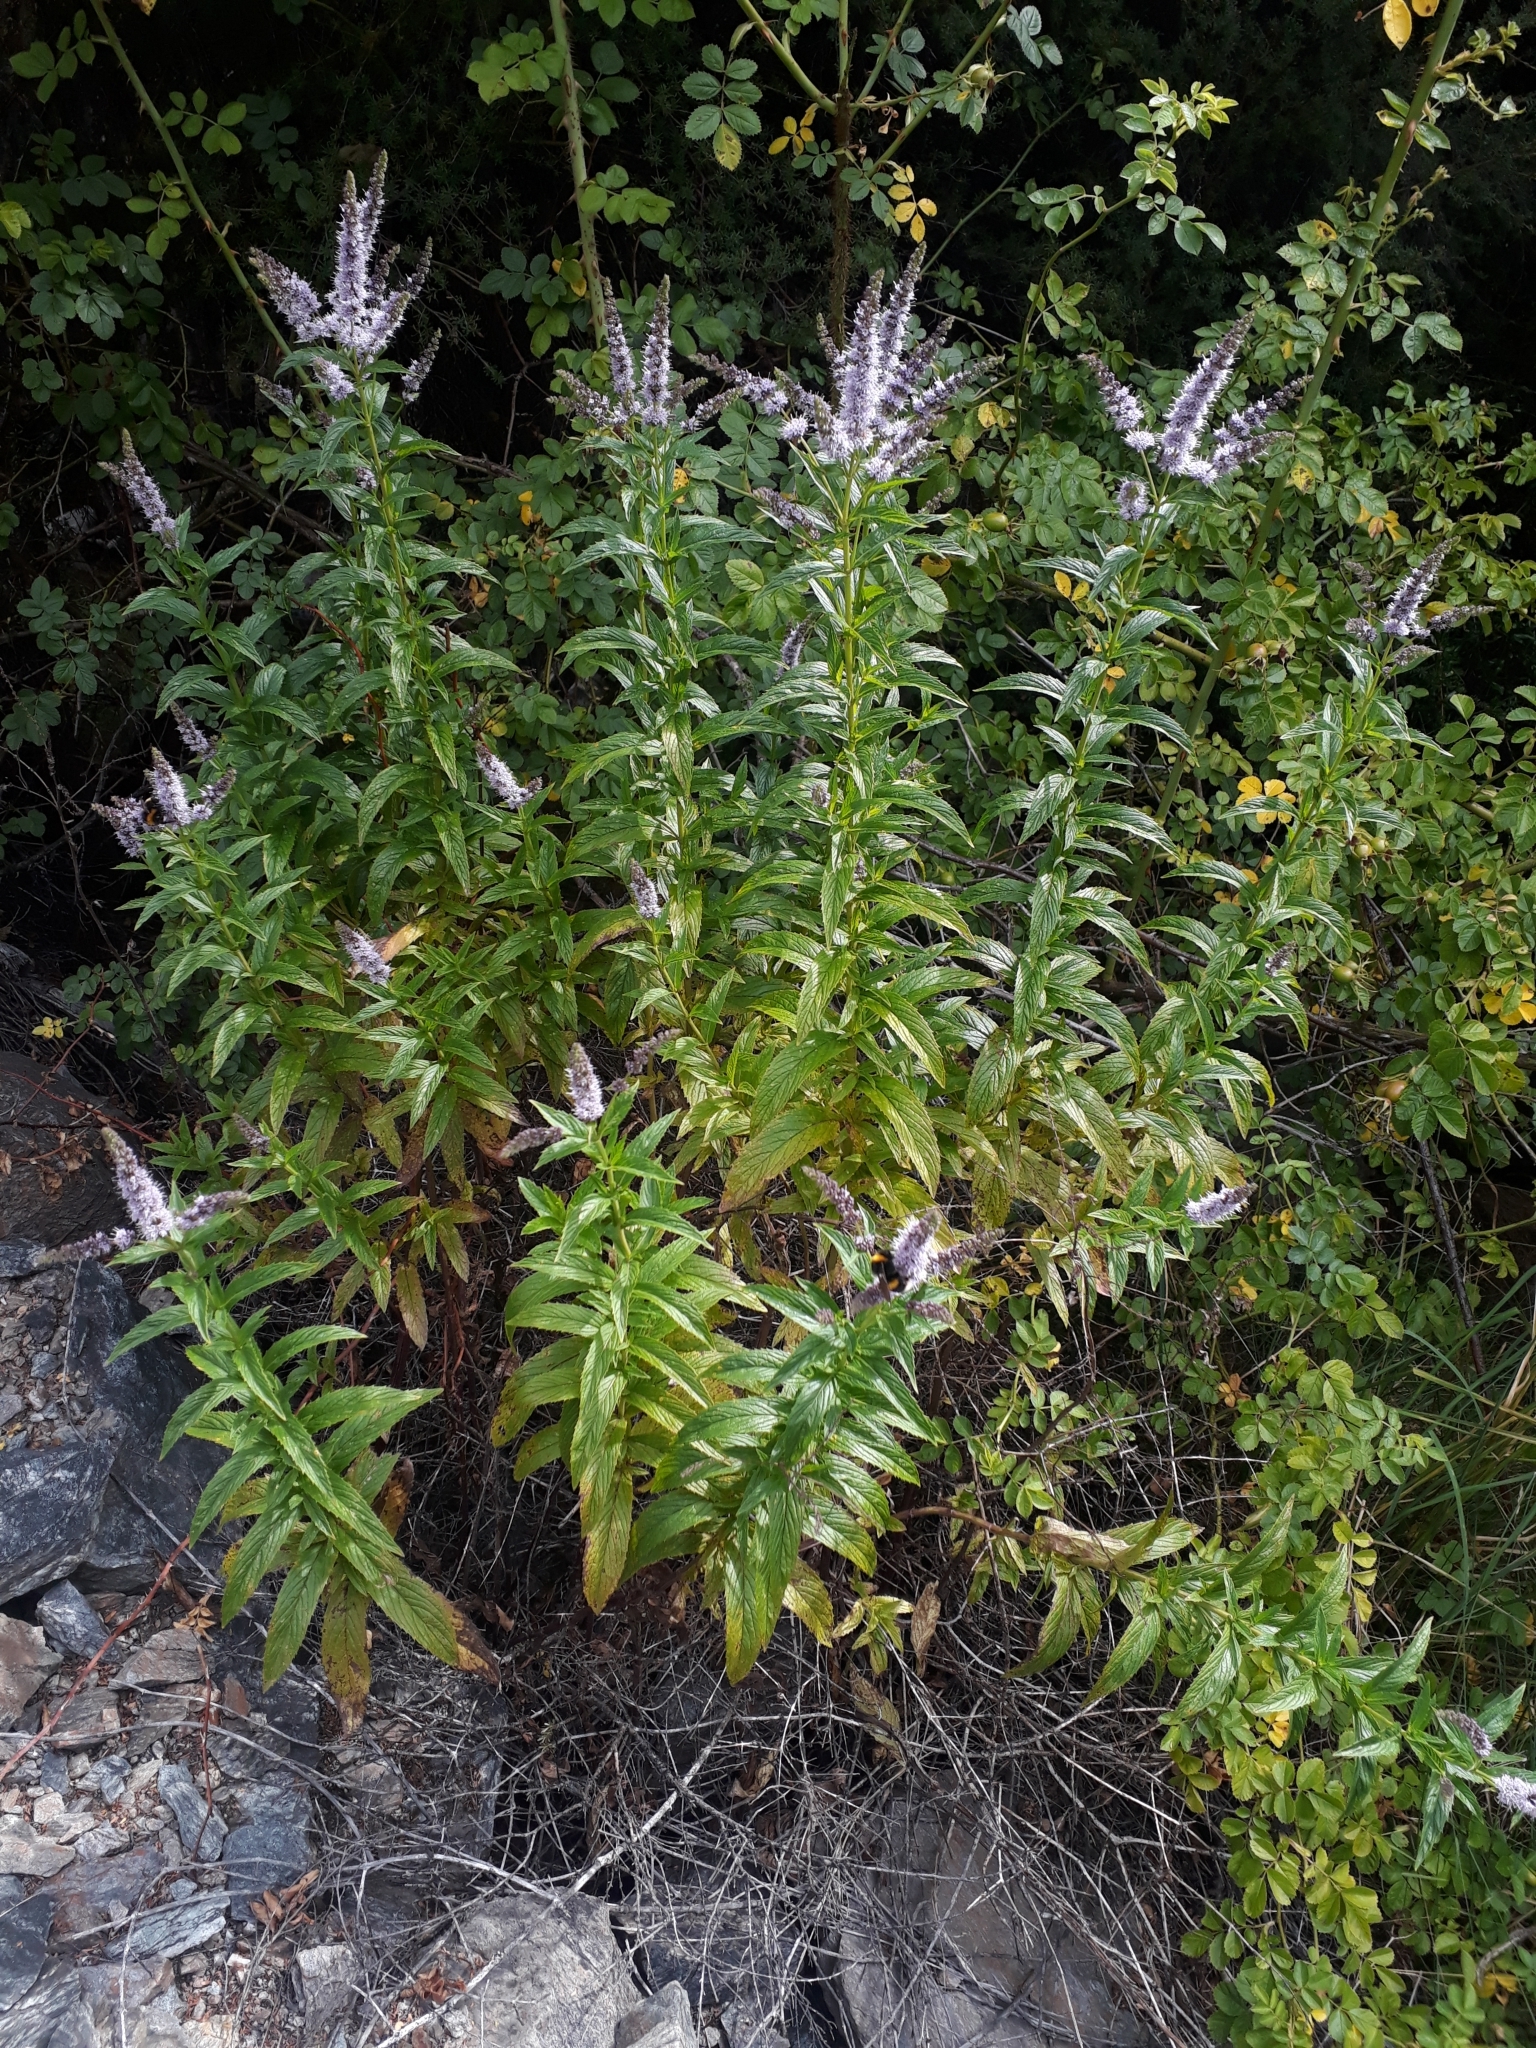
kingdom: Plantae
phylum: Tracheophyta
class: Magnoliopsida
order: Lamiales
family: Lamiaceae
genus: Mentha
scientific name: Mentha spicata
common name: Spearmint
